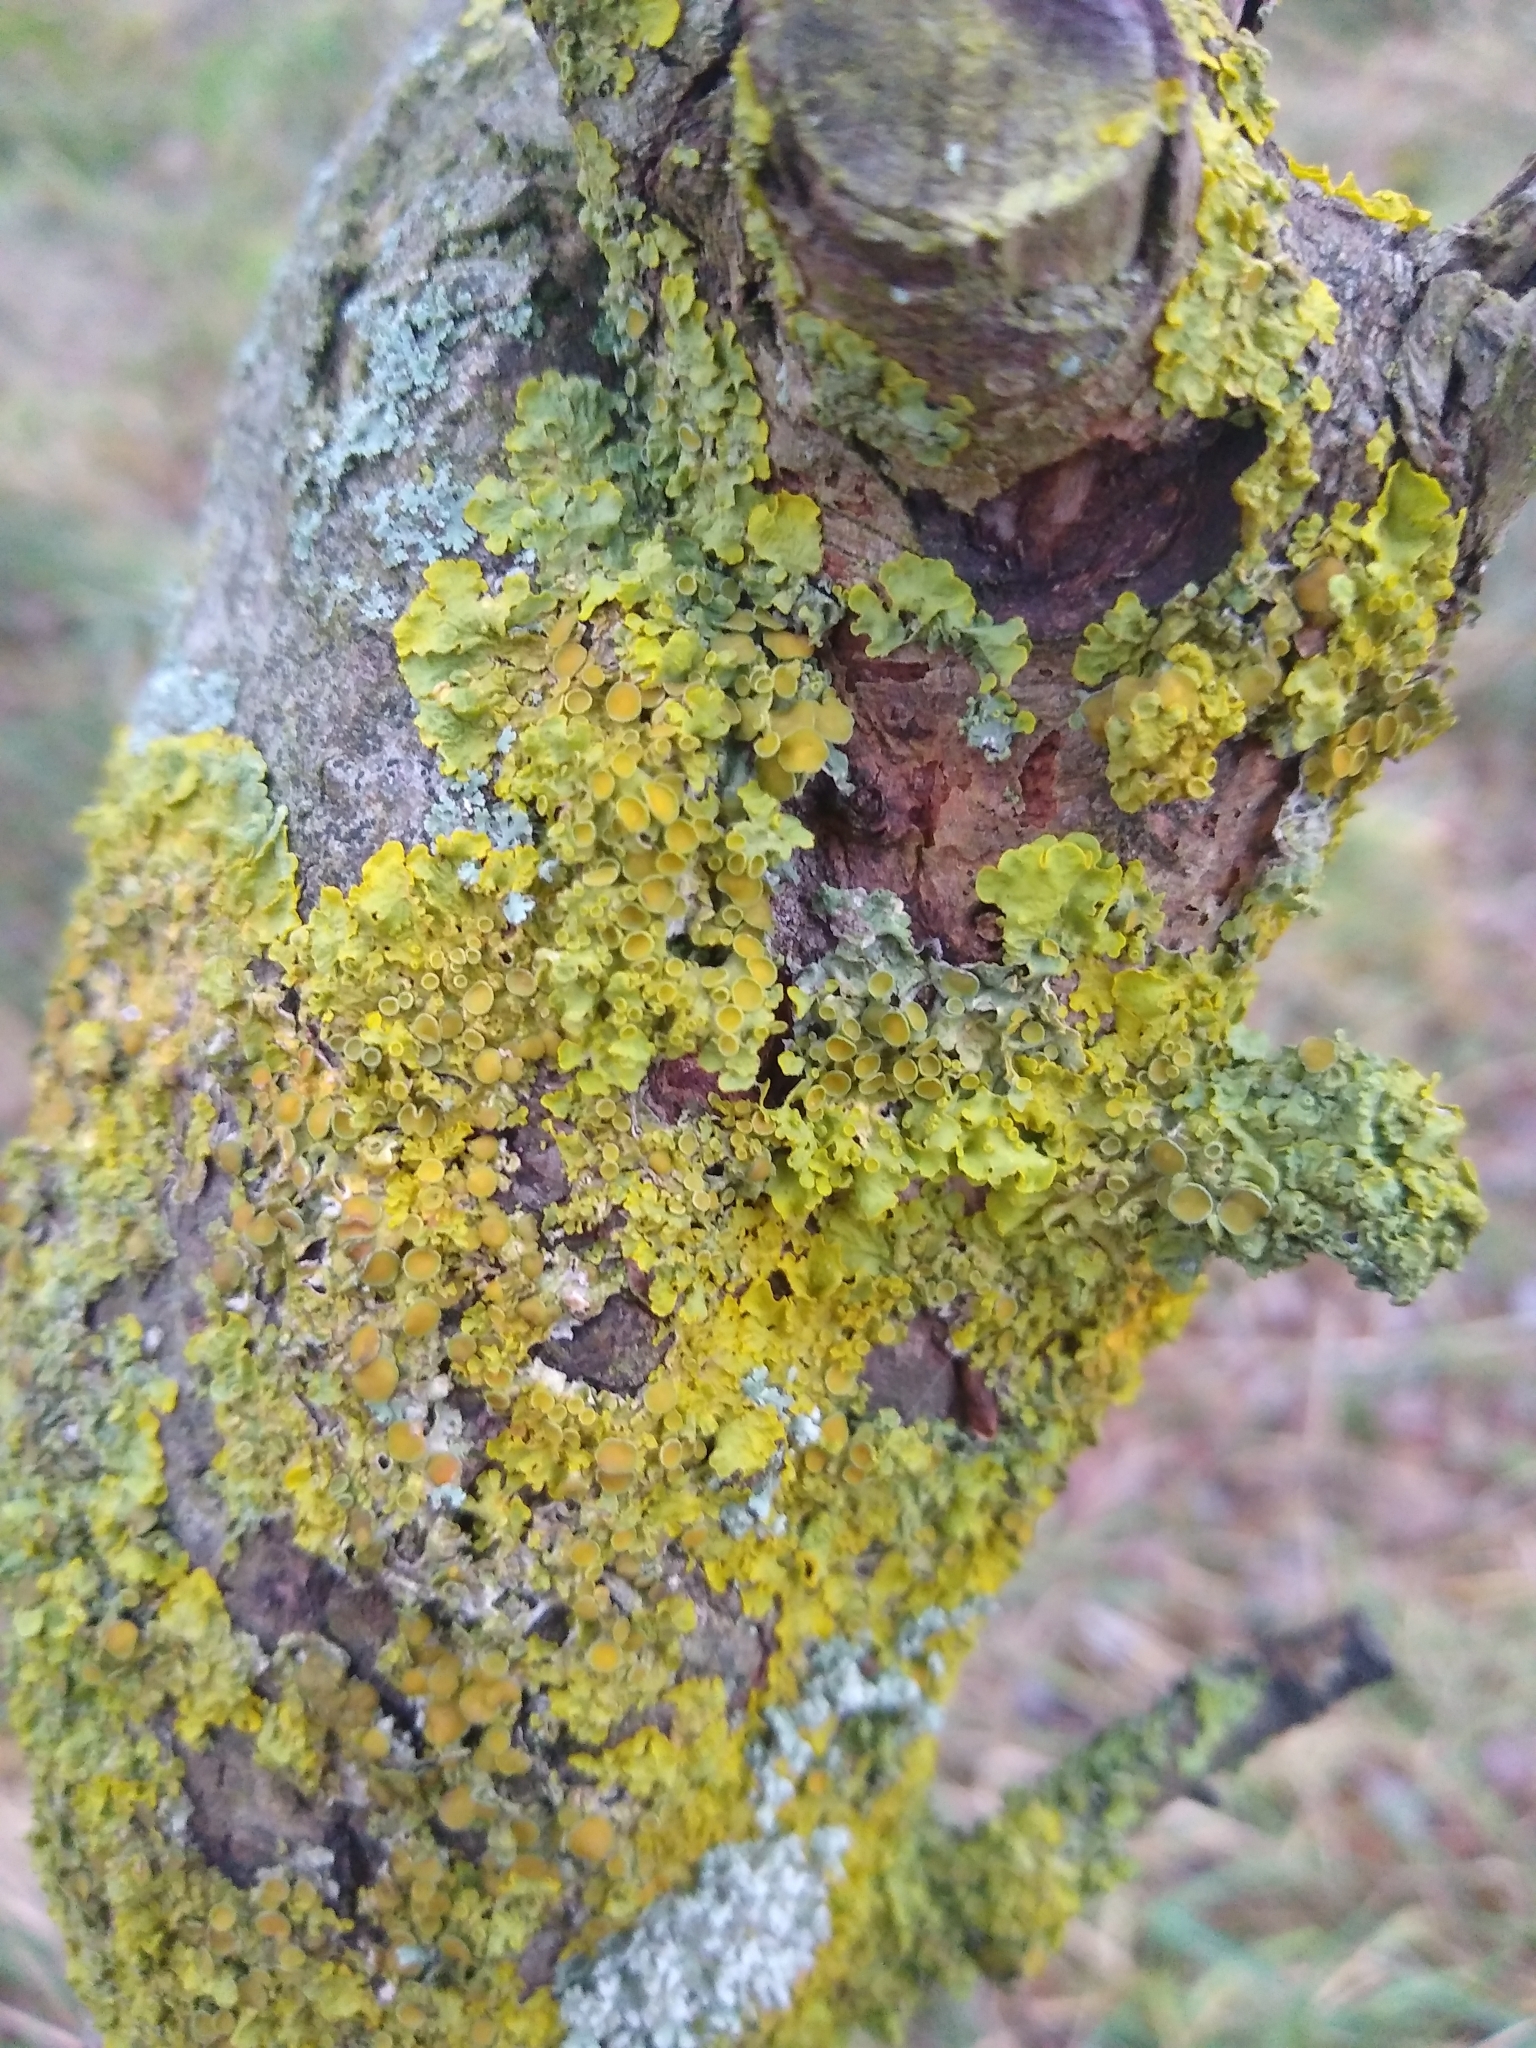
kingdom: Fungi
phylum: Ascomycota
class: Lecanoromycetes
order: Teloschistales
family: Teloschistaceae
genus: Xanthoria
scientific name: Xanthoria parietina
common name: Common orange lichen
